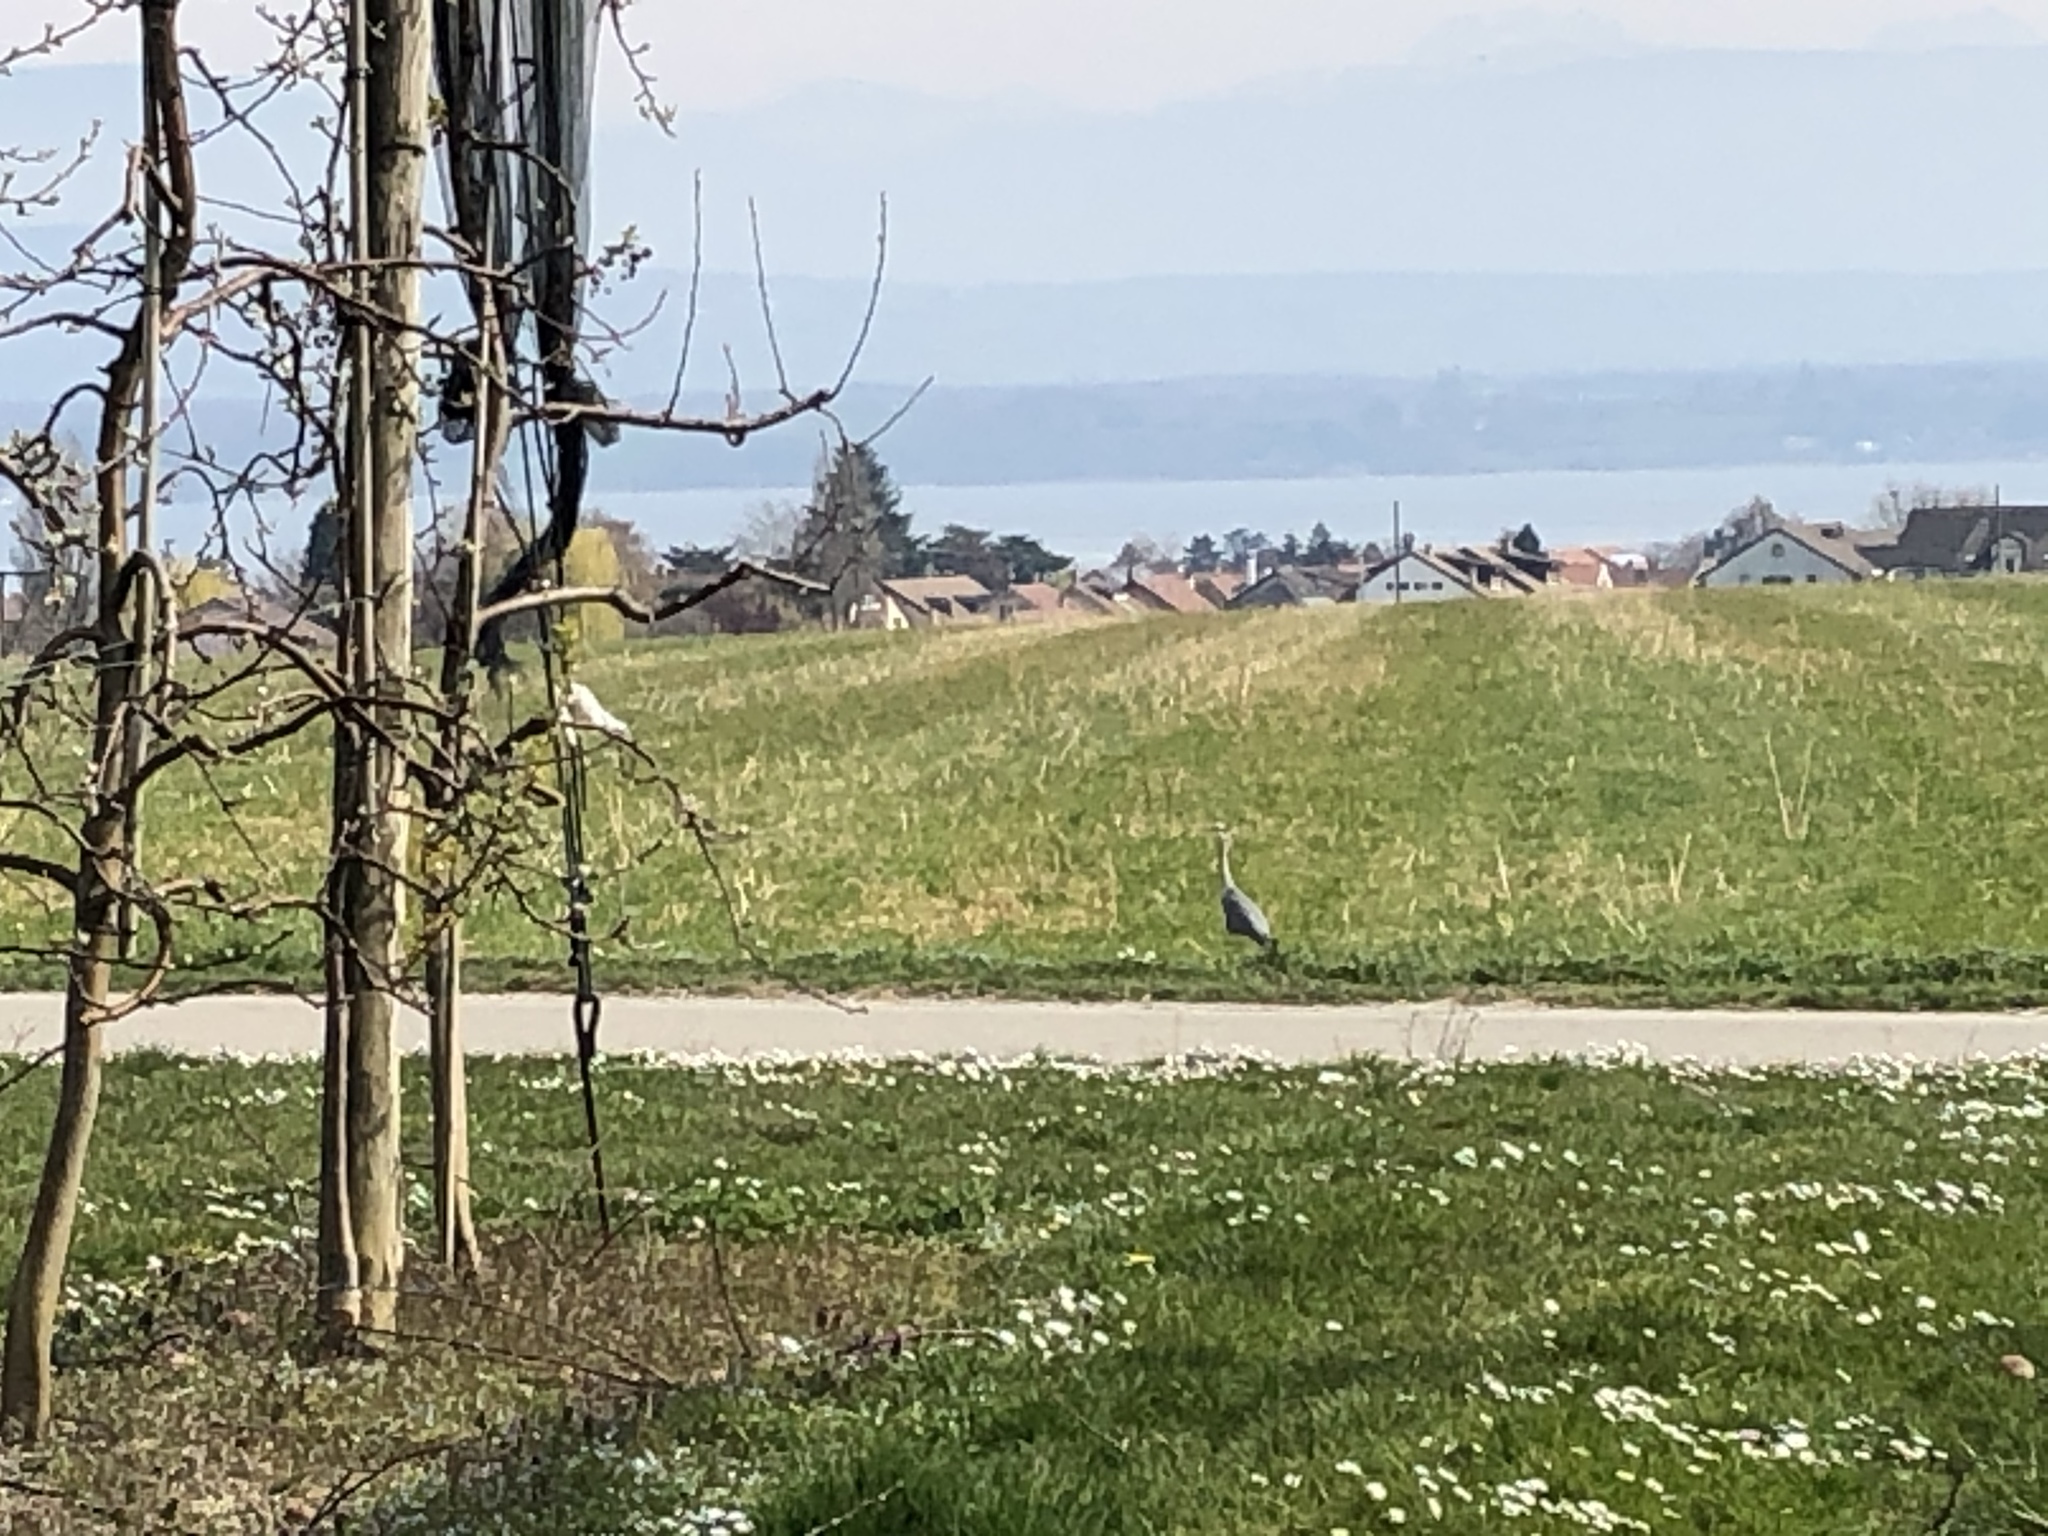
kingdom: Animalia
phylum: Chordata
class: Aves
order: Pelecaniformes
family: Ardeidae
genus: Ardea
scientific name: Ardea cinerea
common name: Grey heron
